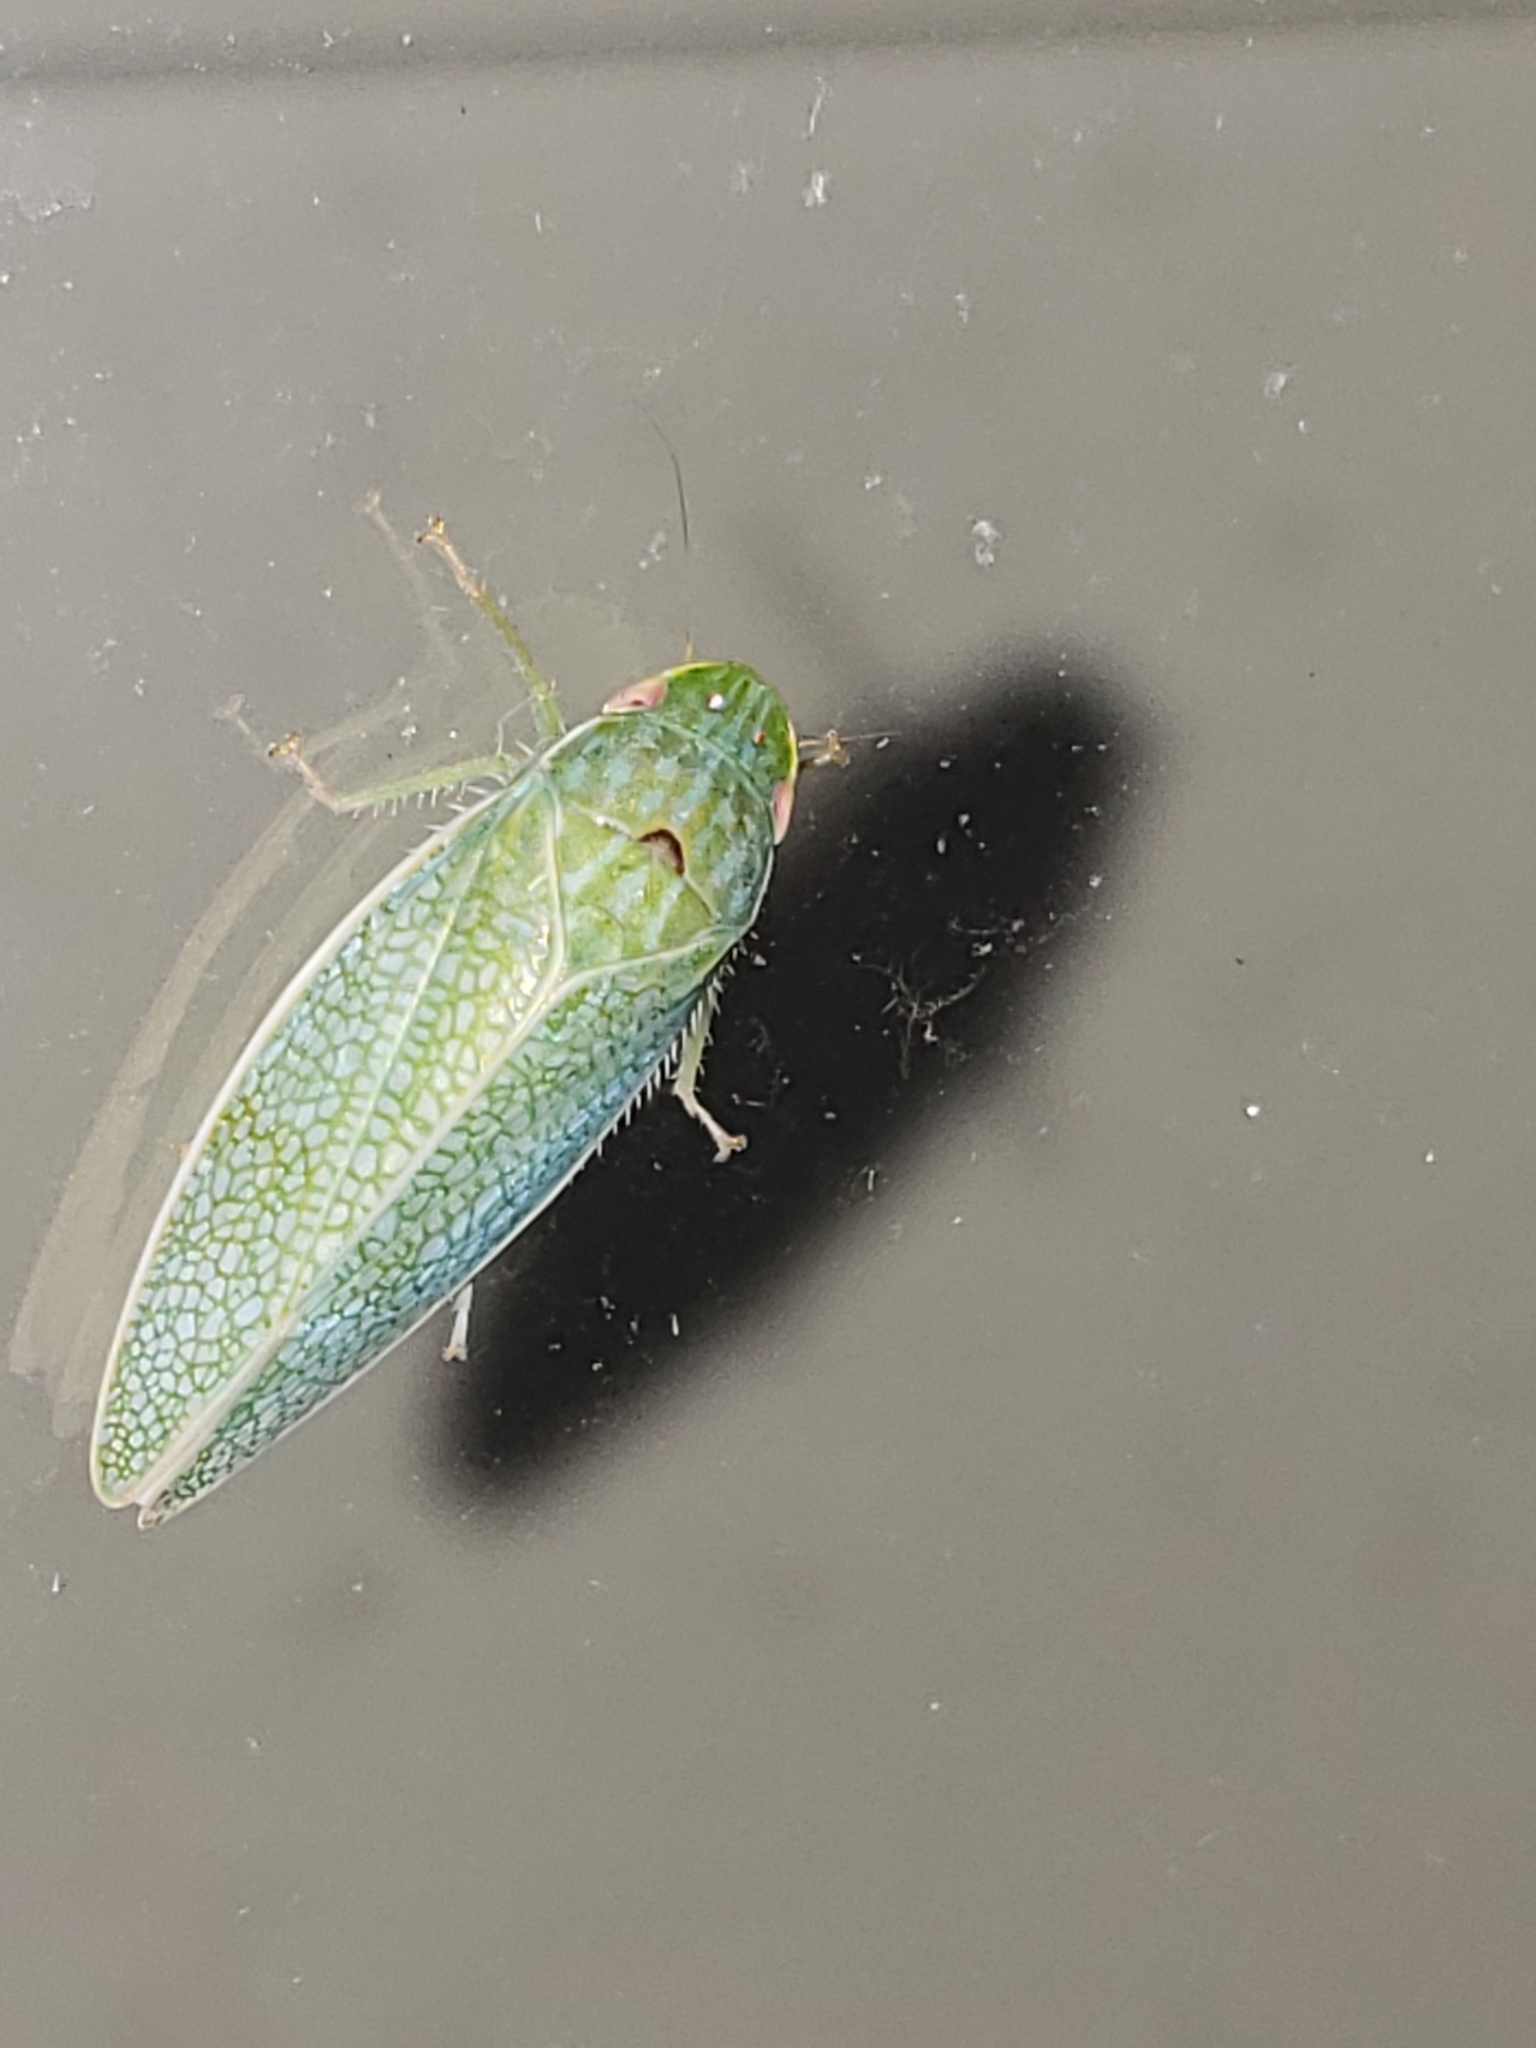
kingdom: Animalia
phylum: Arthropoda
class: Insecta
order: Hemiptera
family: Cicadellidae
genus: Gyponana
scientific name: Gyponana procera
